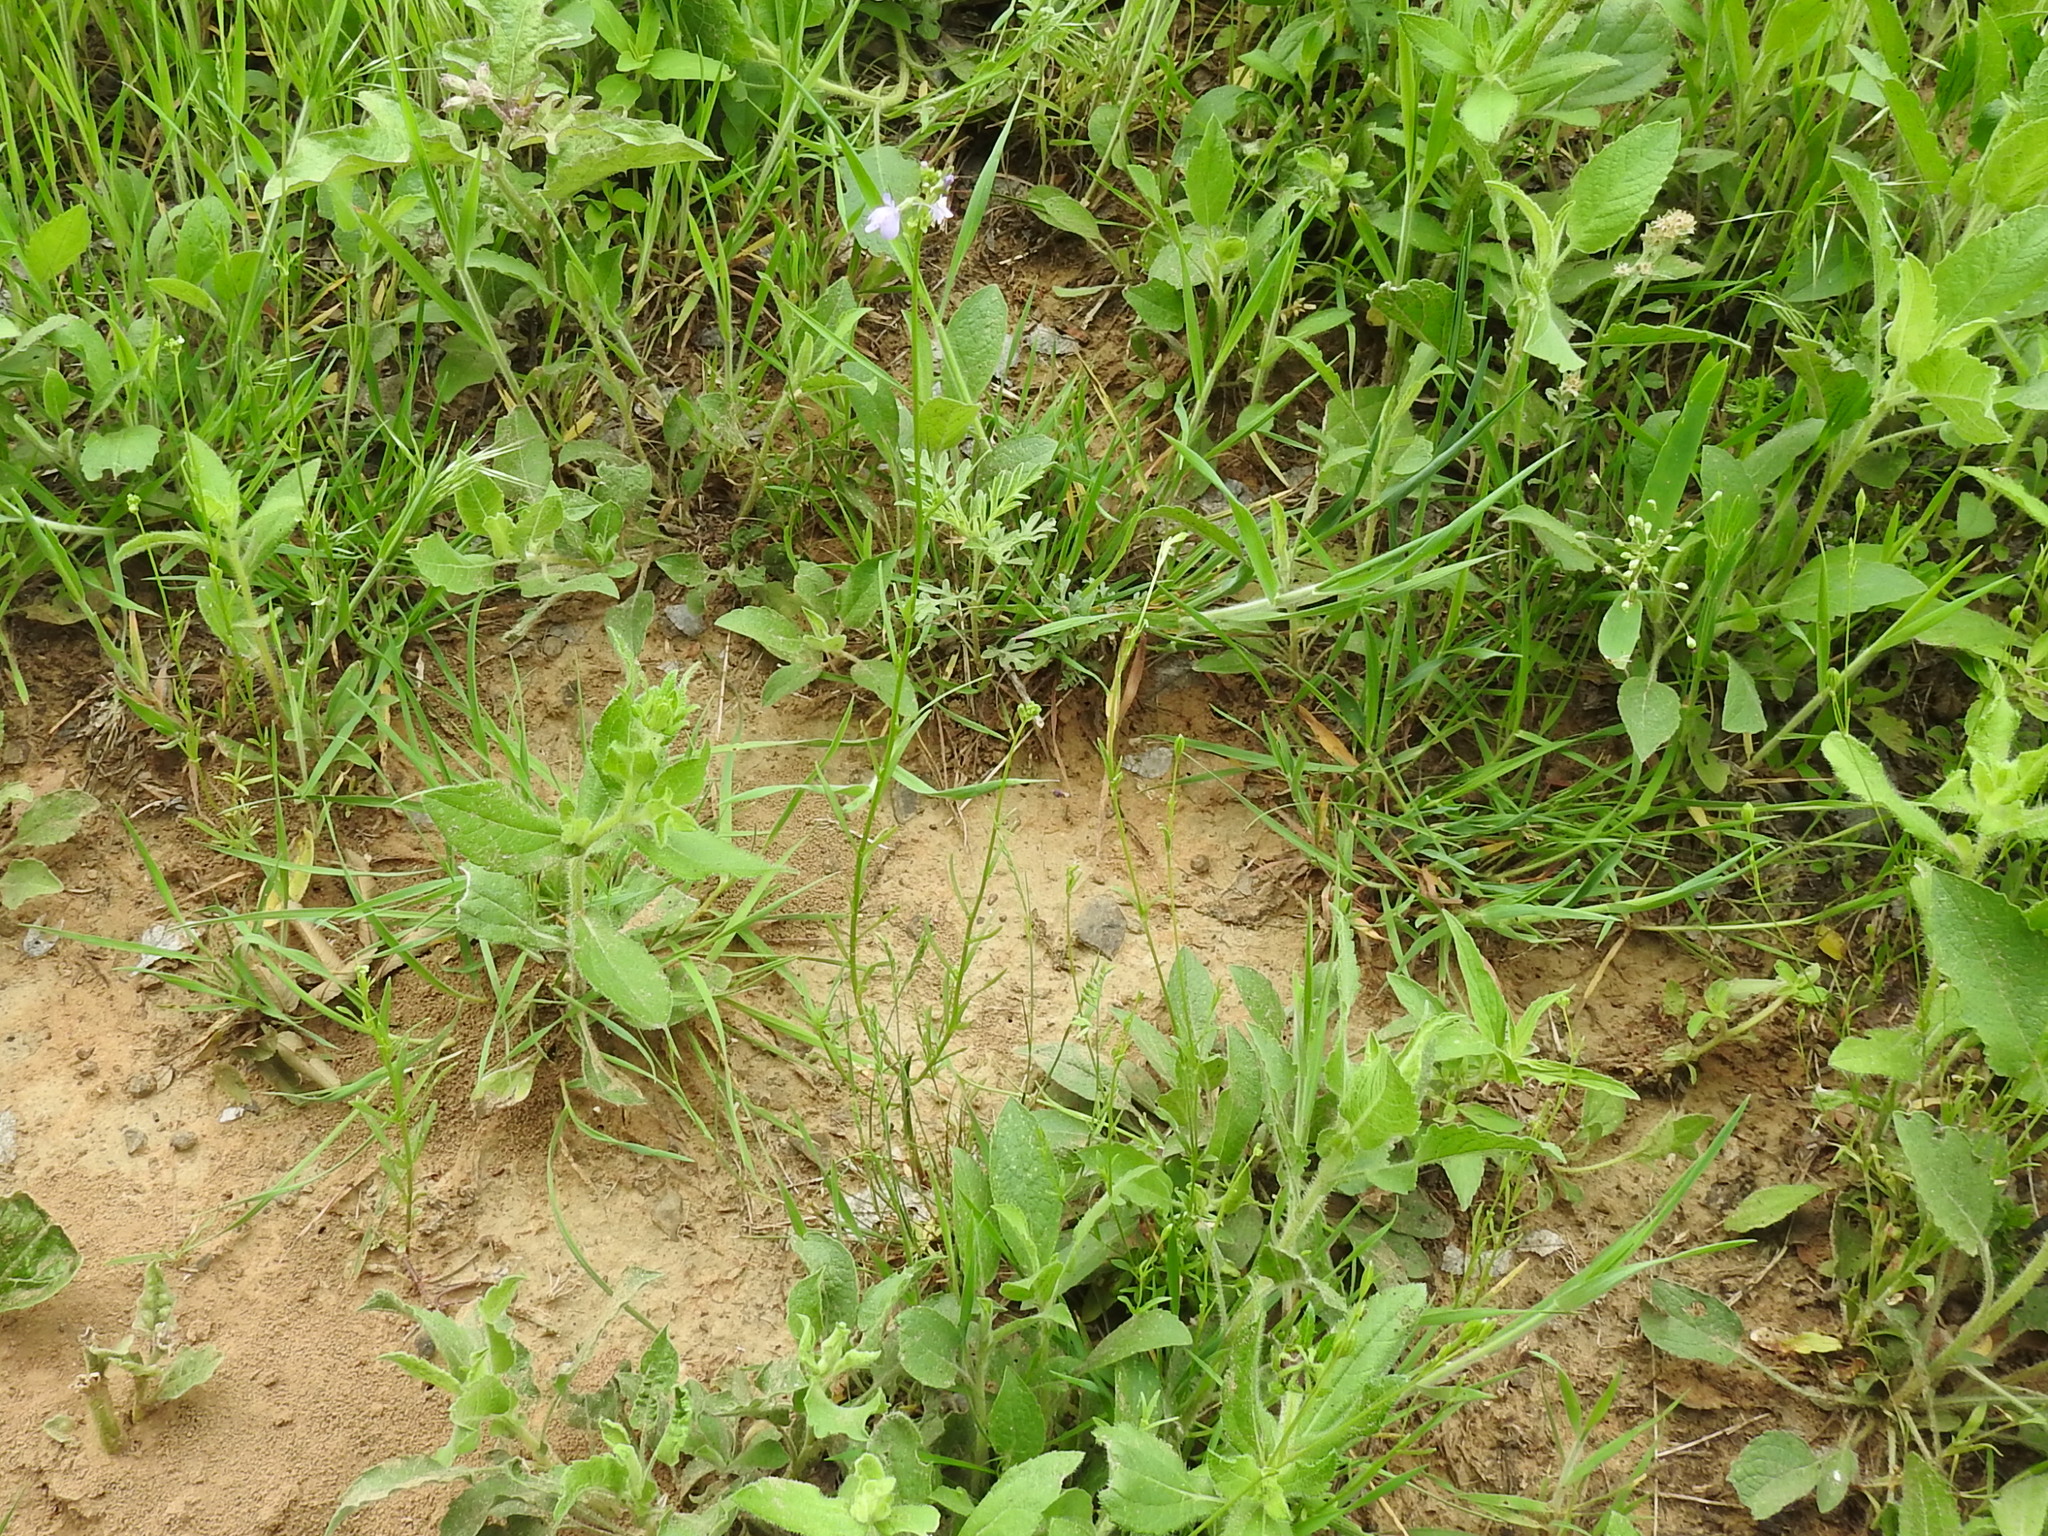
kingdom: Plantae
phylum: Tracheophyta
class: Magnoliopsida
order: Lamiales
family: Plantaginaceae
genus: Nuttallanthus
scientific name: Nuttallanthus texanus
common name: Texas toadflax
